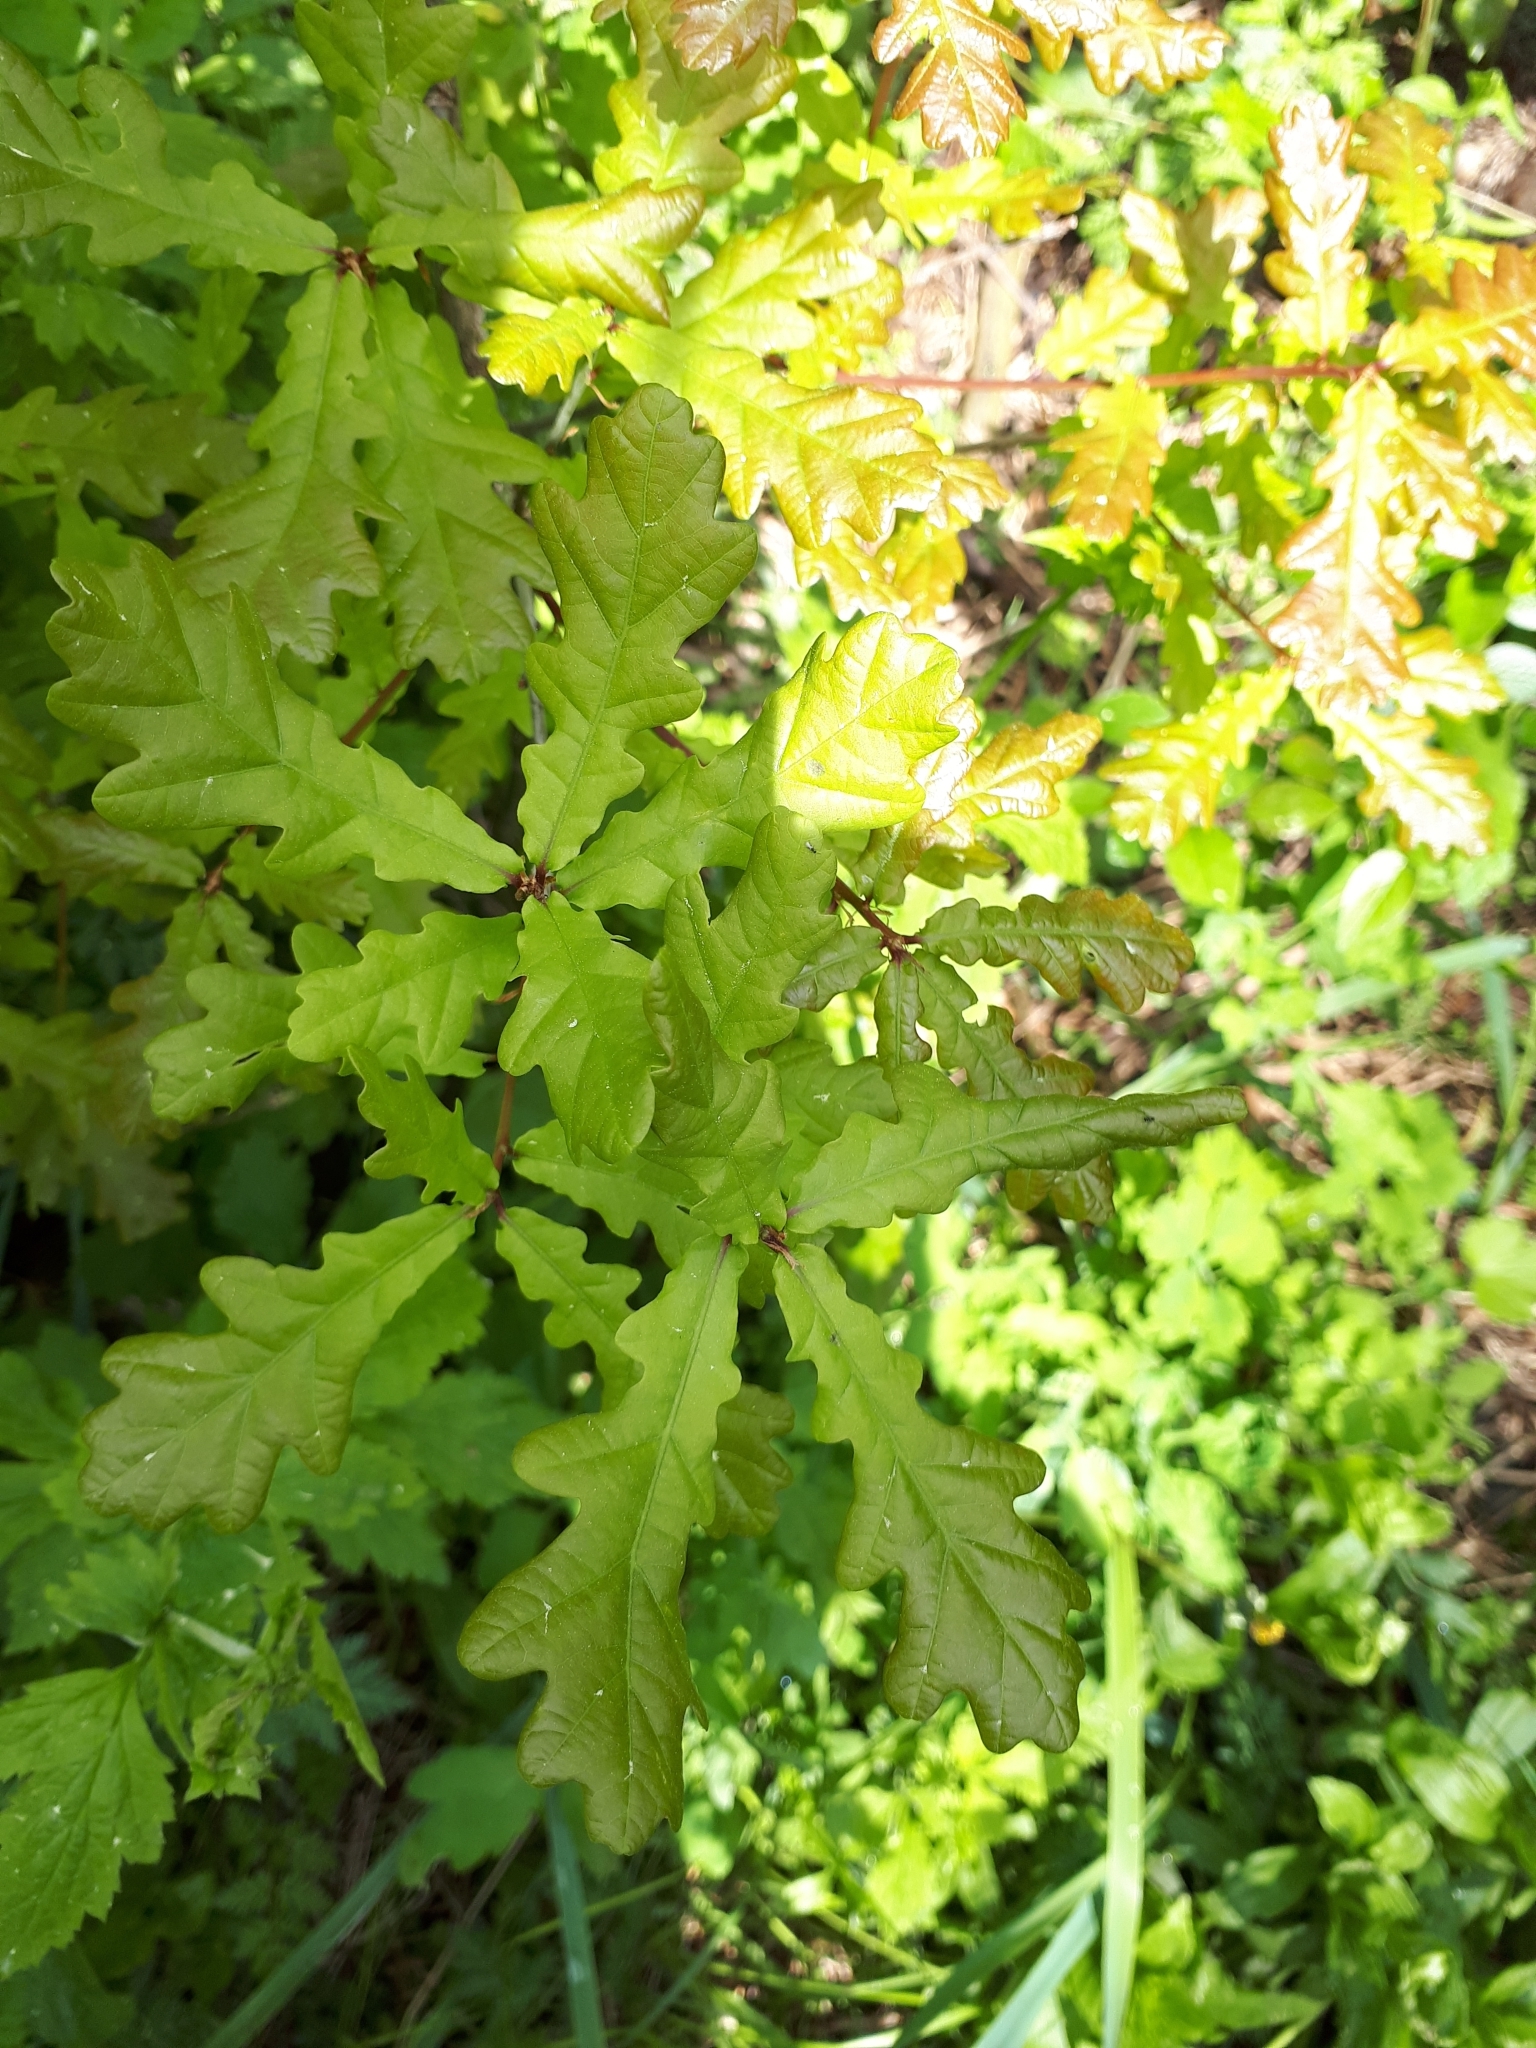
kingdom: Plantae
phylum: Tracheophyta
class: Magnoliopsida
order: Fagales
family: Fagaceae
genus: Quercus
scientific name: Quercus robur
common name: Pedunculate oak
